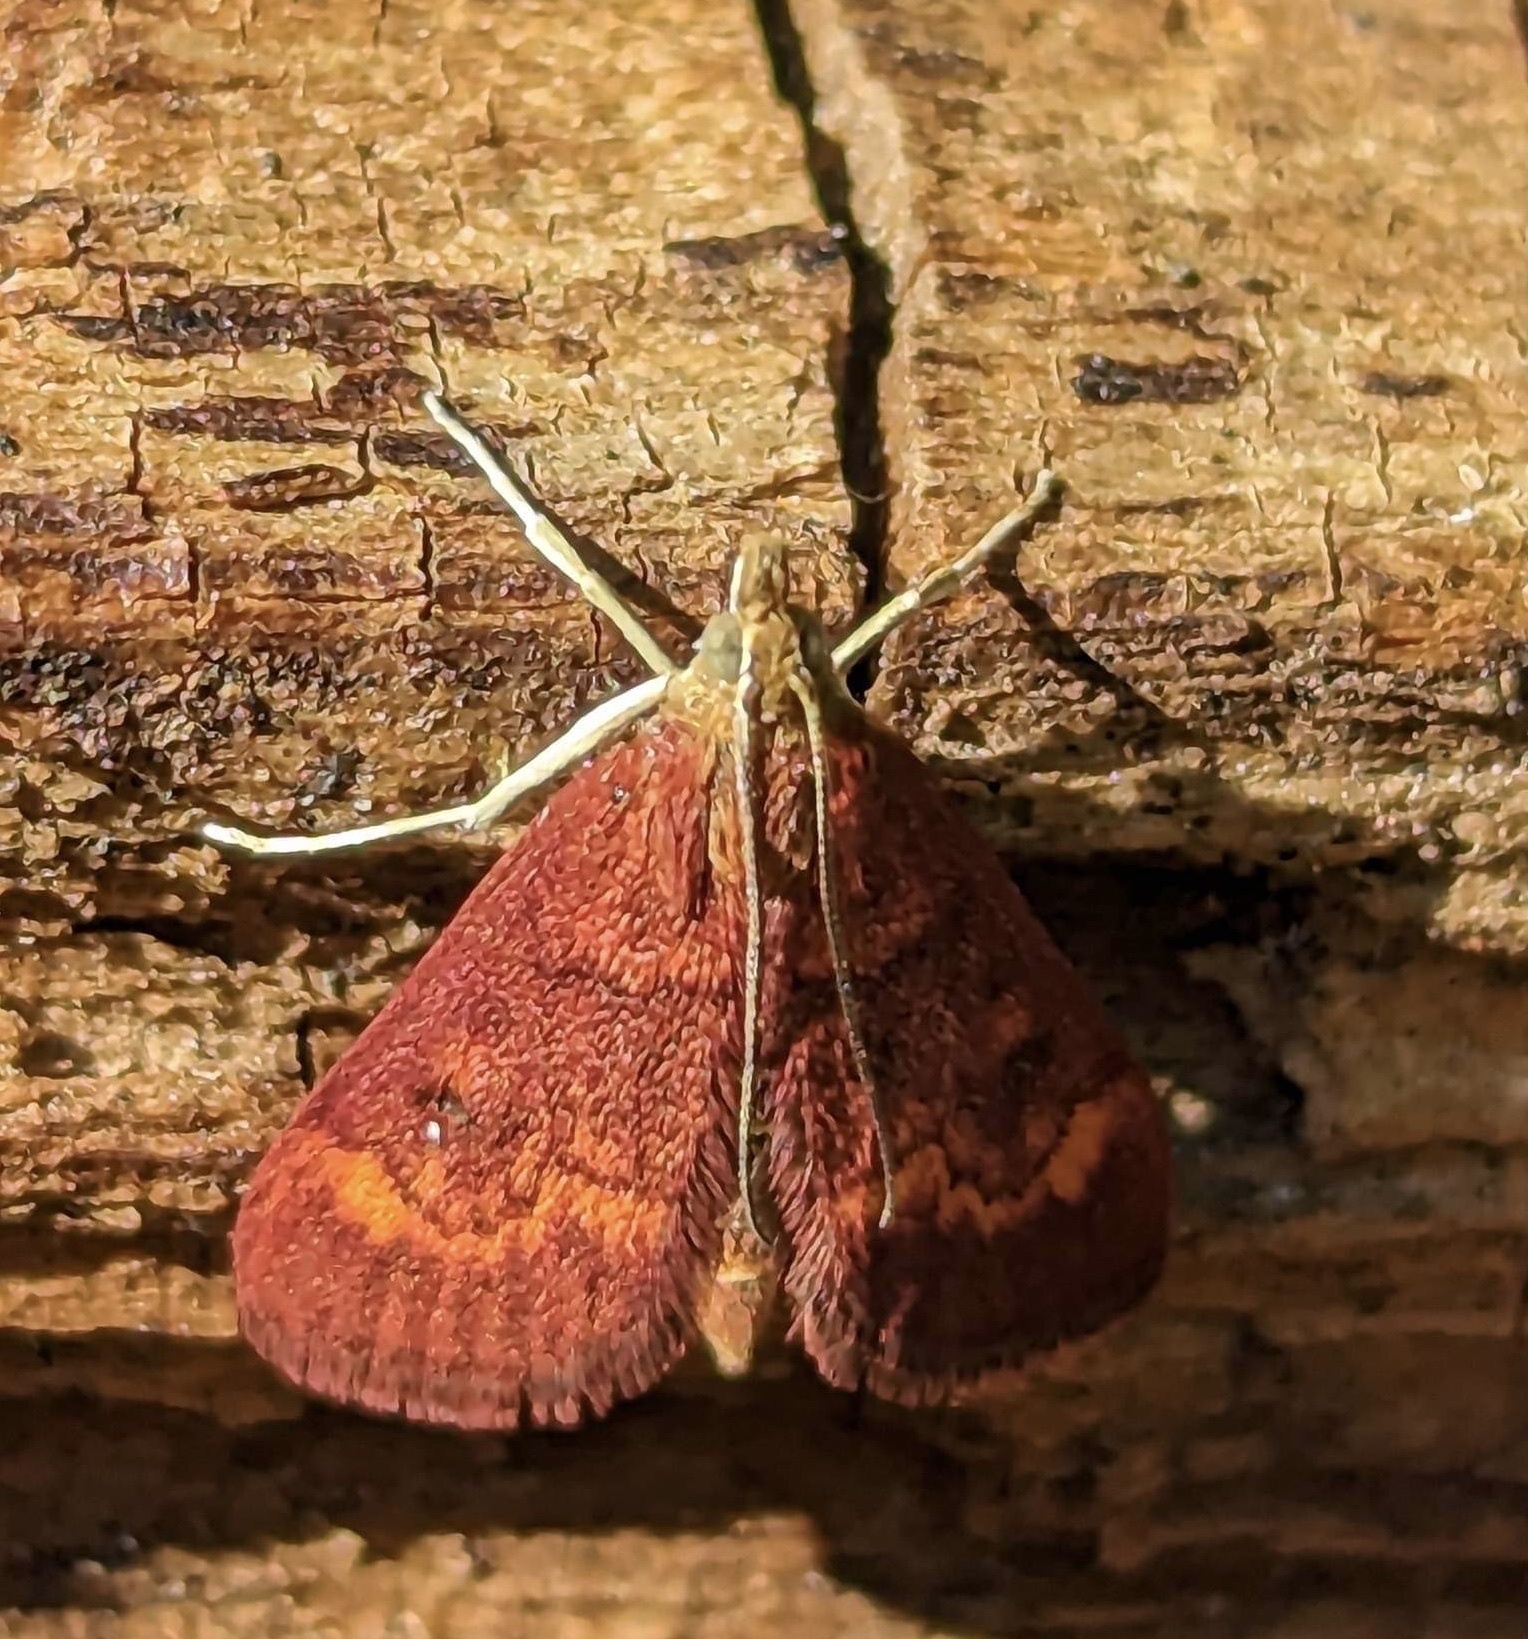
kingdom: Animalia
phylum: Arthropoda
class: Insecta
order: Lepidoptera
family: Crambidae
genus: Pyrausta
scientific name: Pyrausta californicalis
